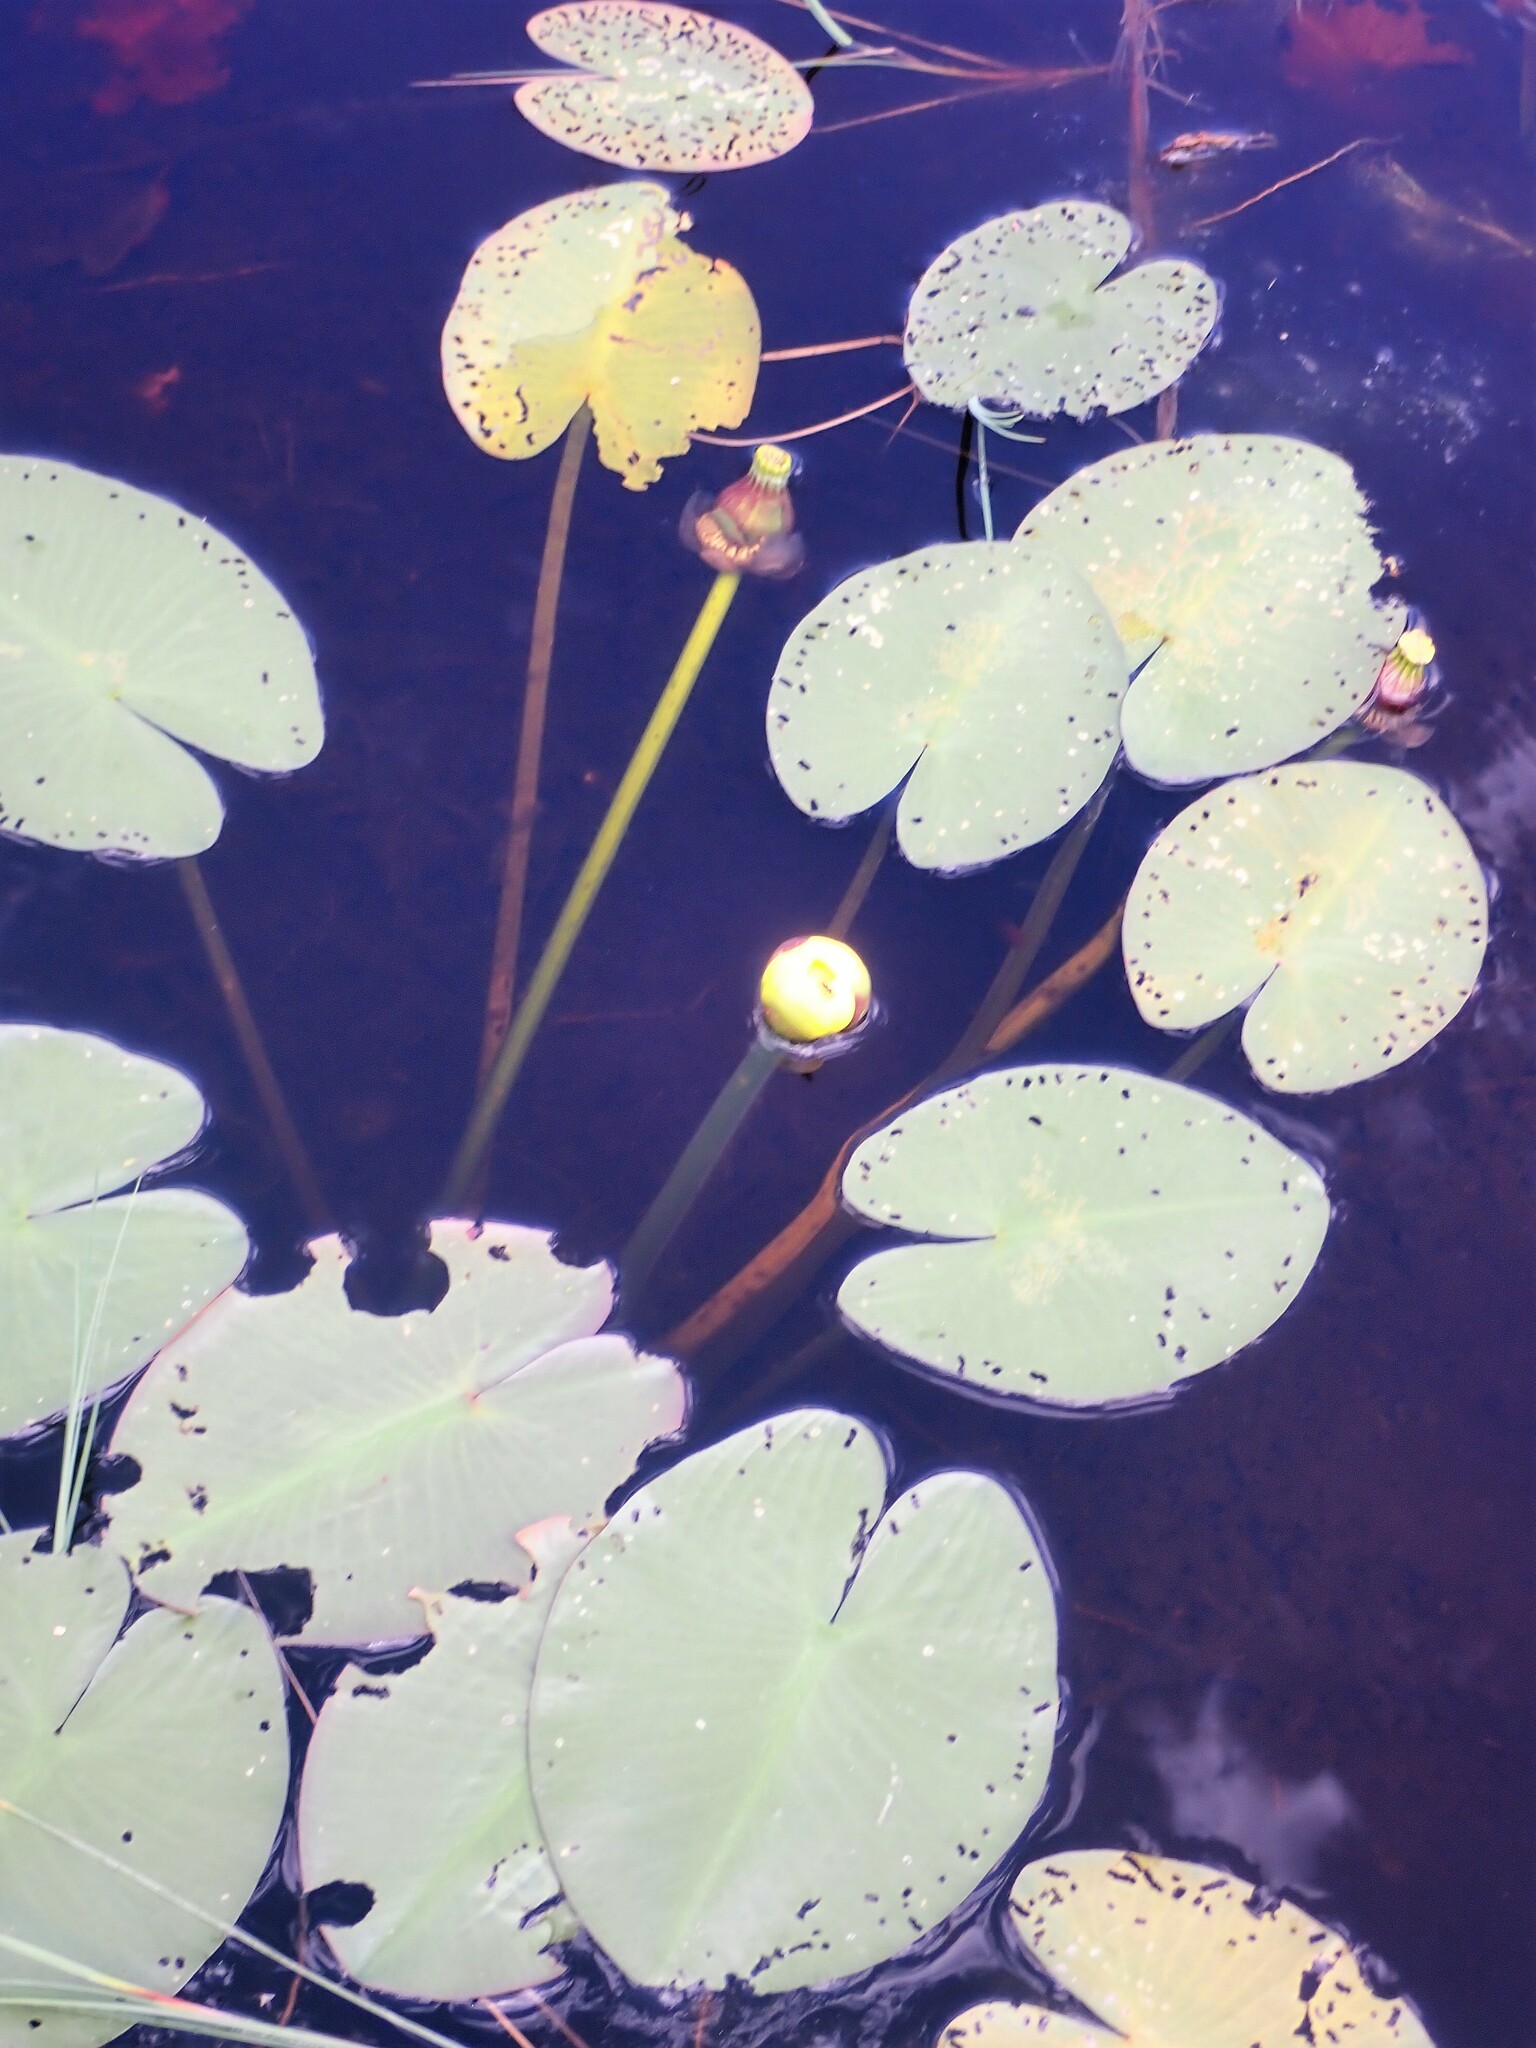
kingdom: Plantae
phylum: Tracheophyta
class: Magnoliopsida
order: Nymphaeales
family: Nymphaeaceae
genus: Nuphar
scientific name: Nuphar variegata
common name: Beaver-root
